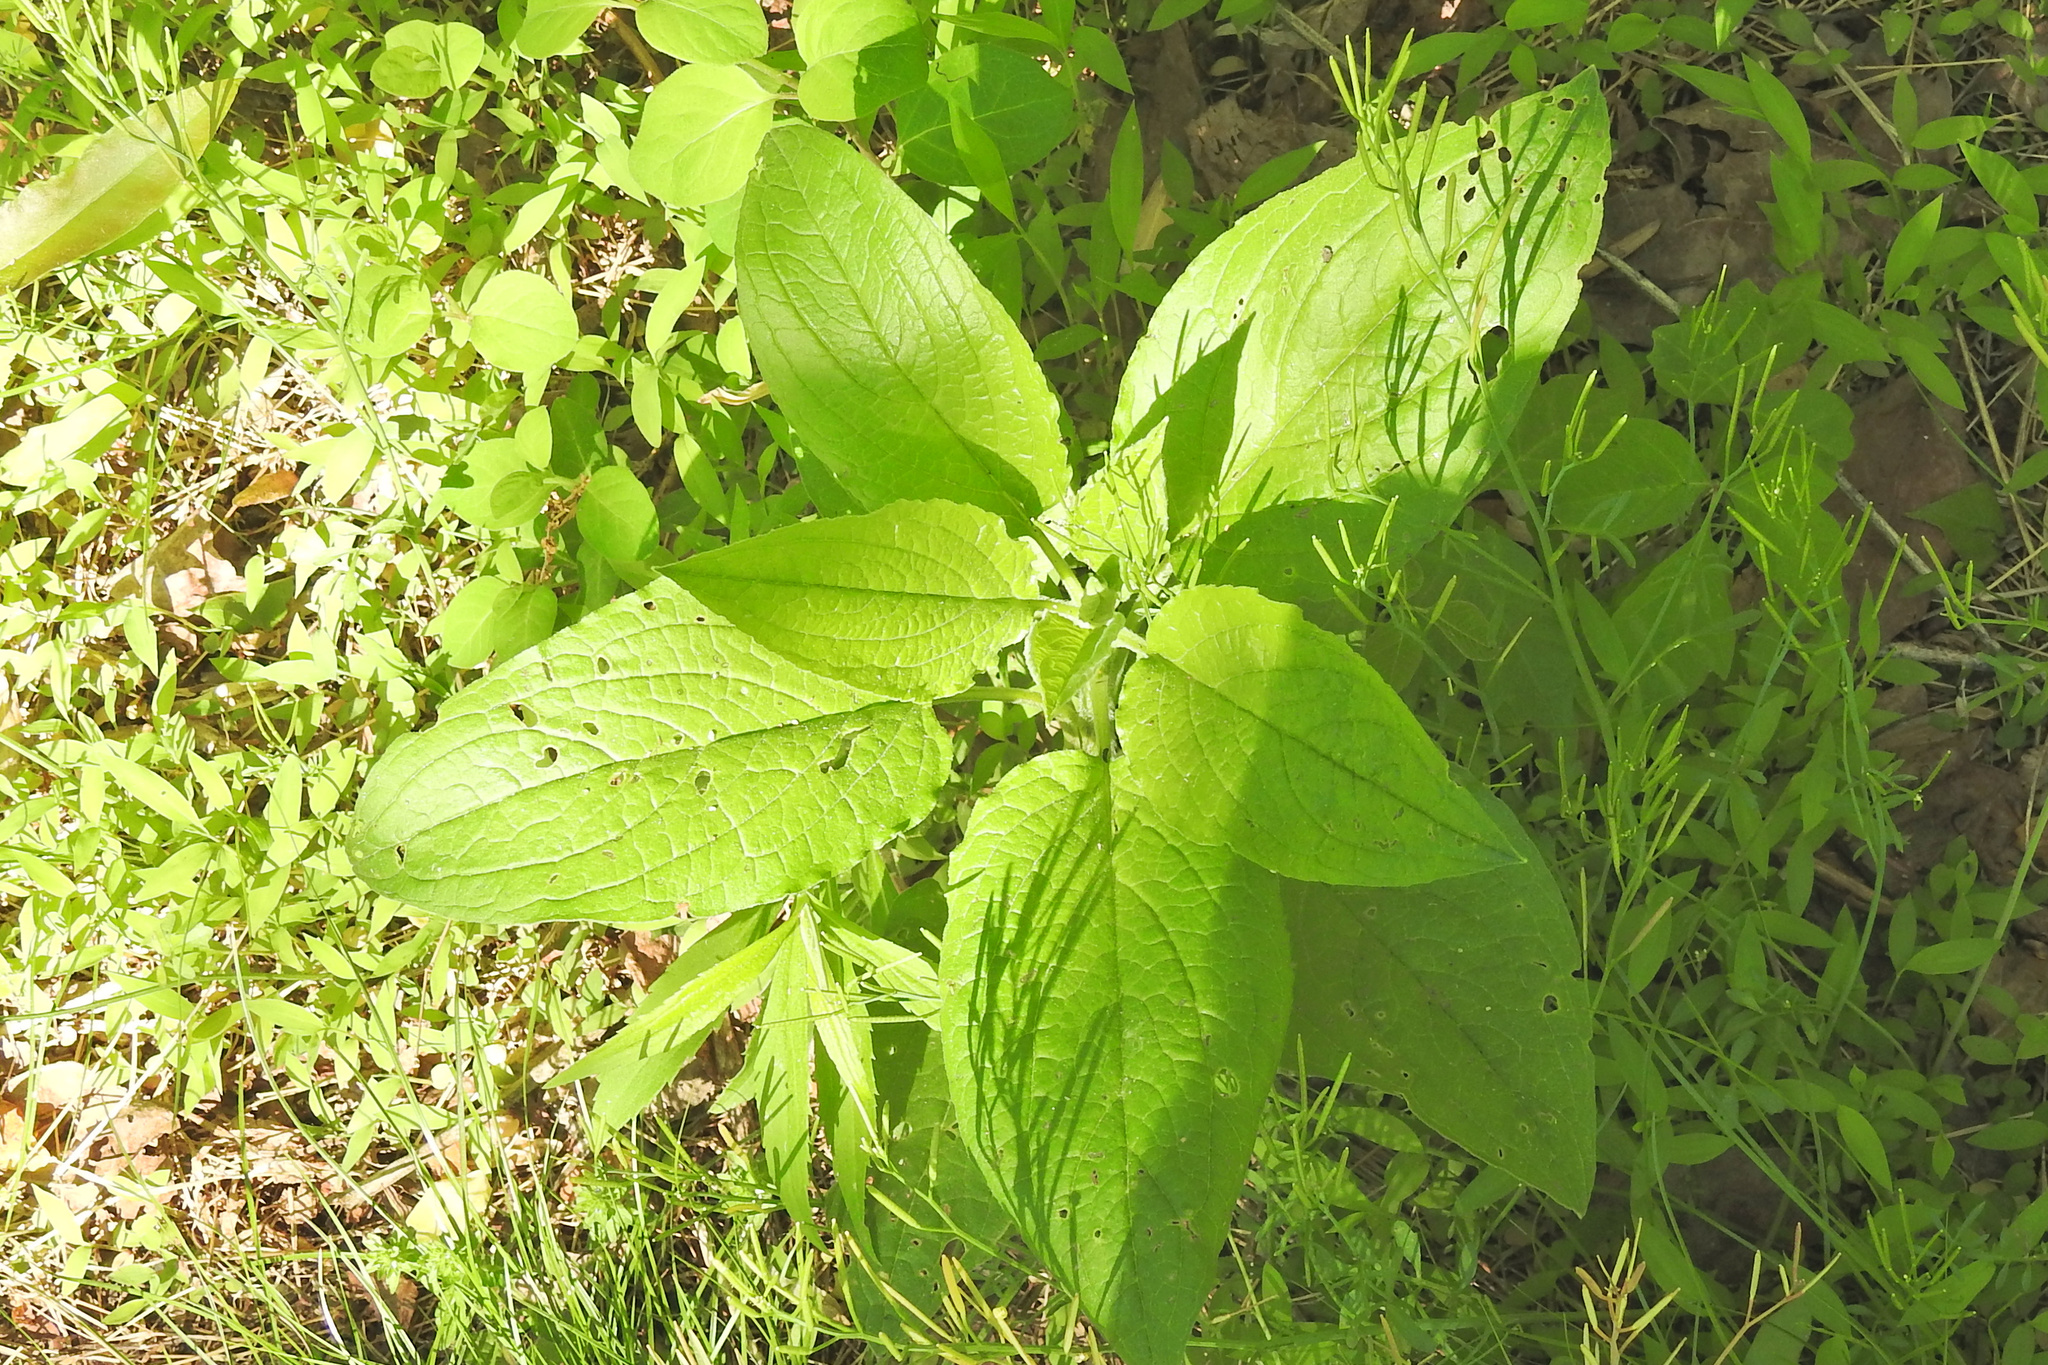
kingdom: Plantae
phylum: Tracheophyta
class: Magnoliopsida
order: Boraginales
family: Boraginaceae
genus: Hackelia
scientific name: Hackelia virginiana
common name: Beggar's-lice
